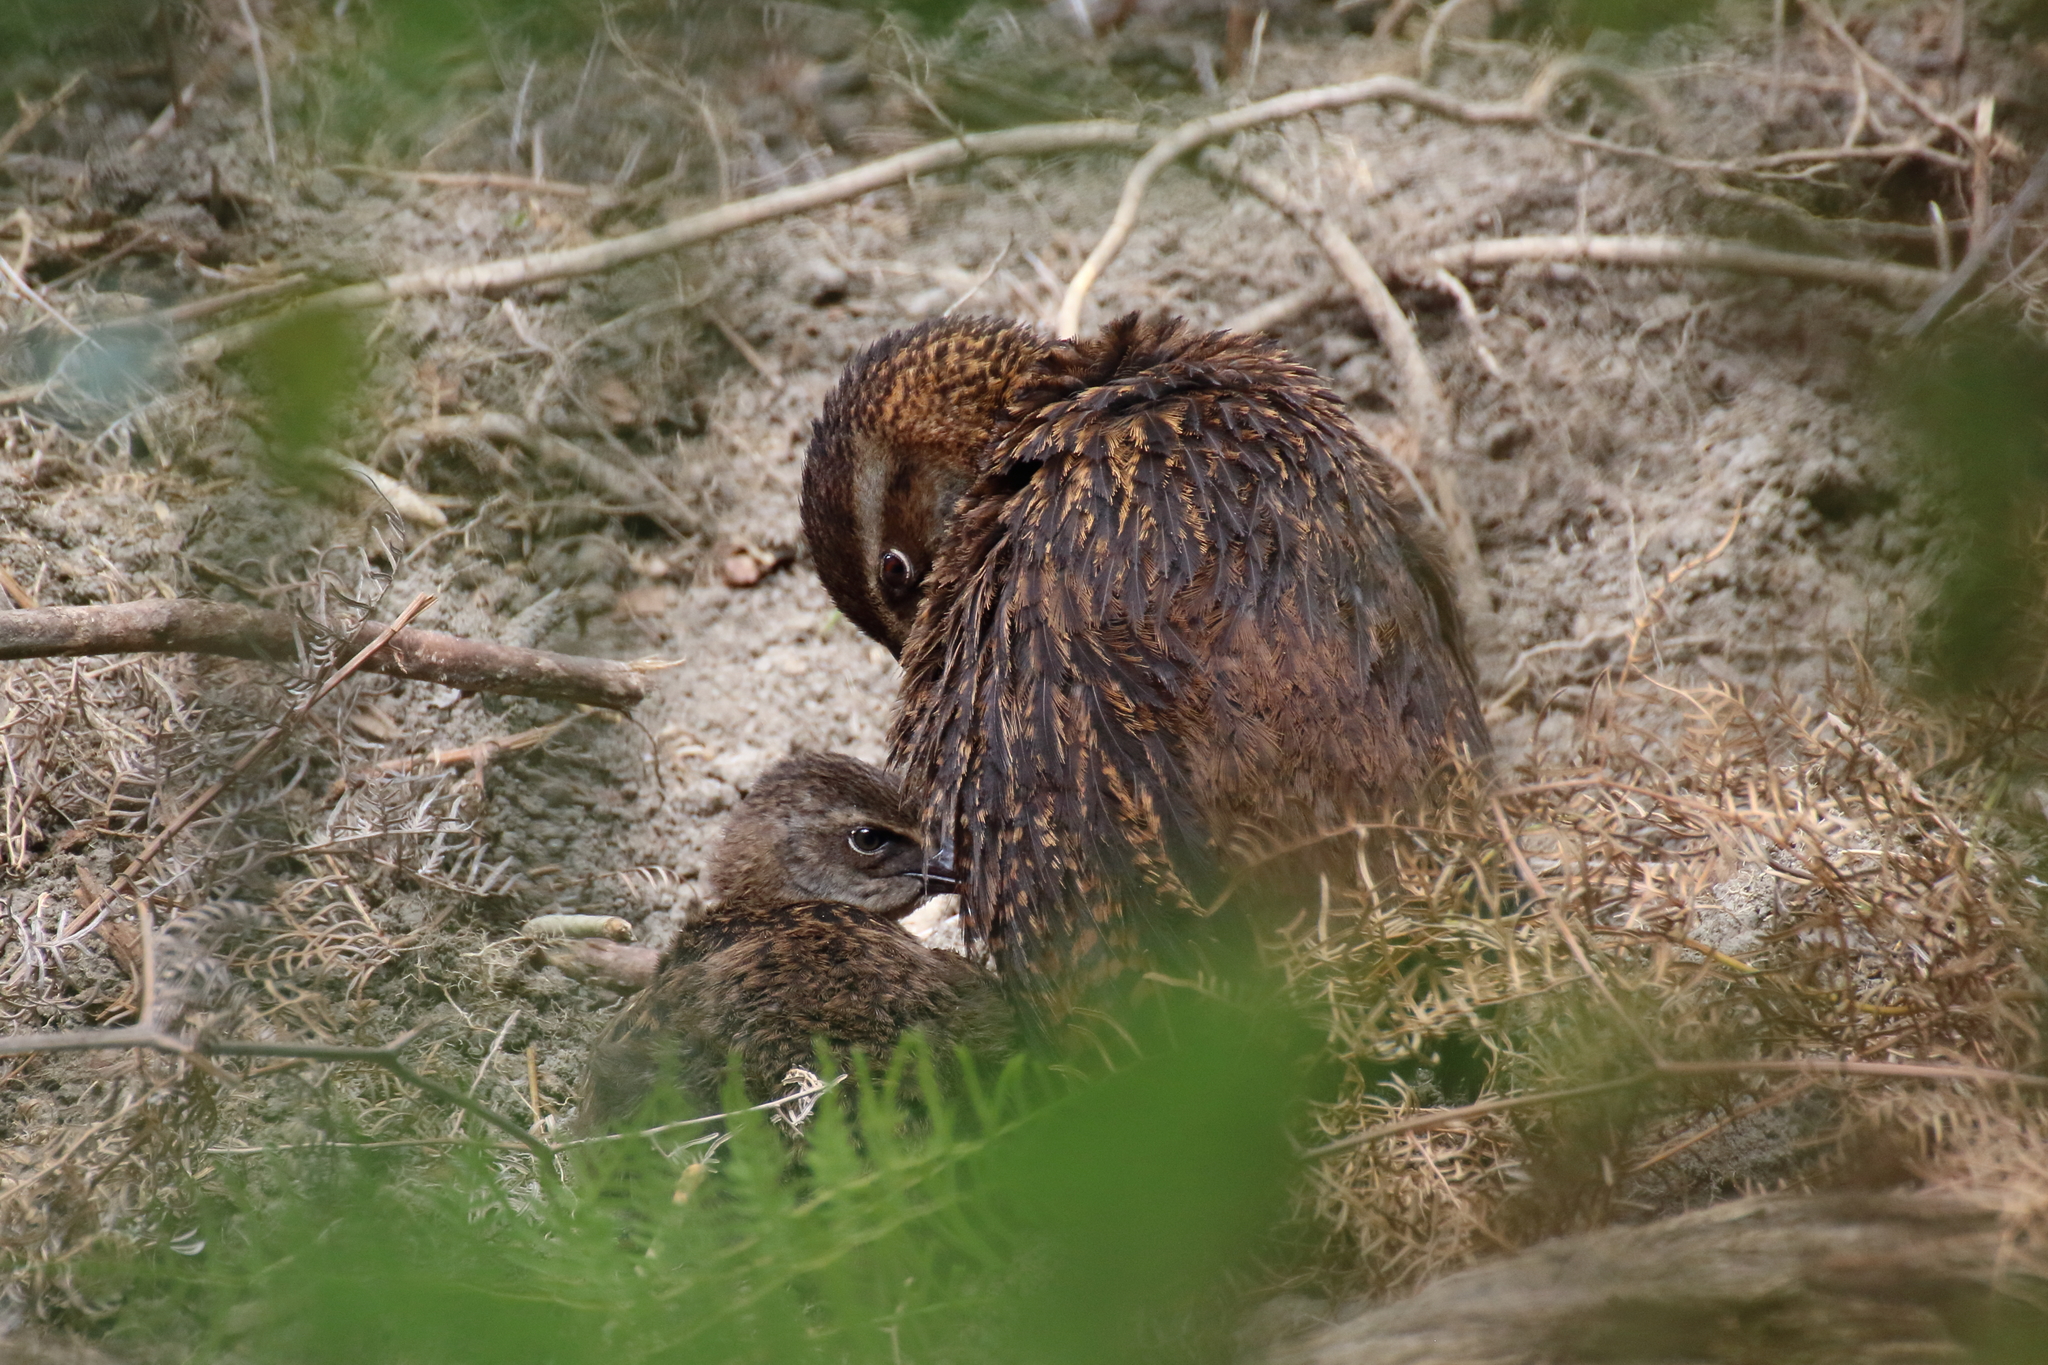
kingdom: Animalia
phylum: Chordata
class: Aves
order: Gruiformes
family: Rallidae
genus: Gallirallus
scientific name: Gallirallus australis
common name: Weka
